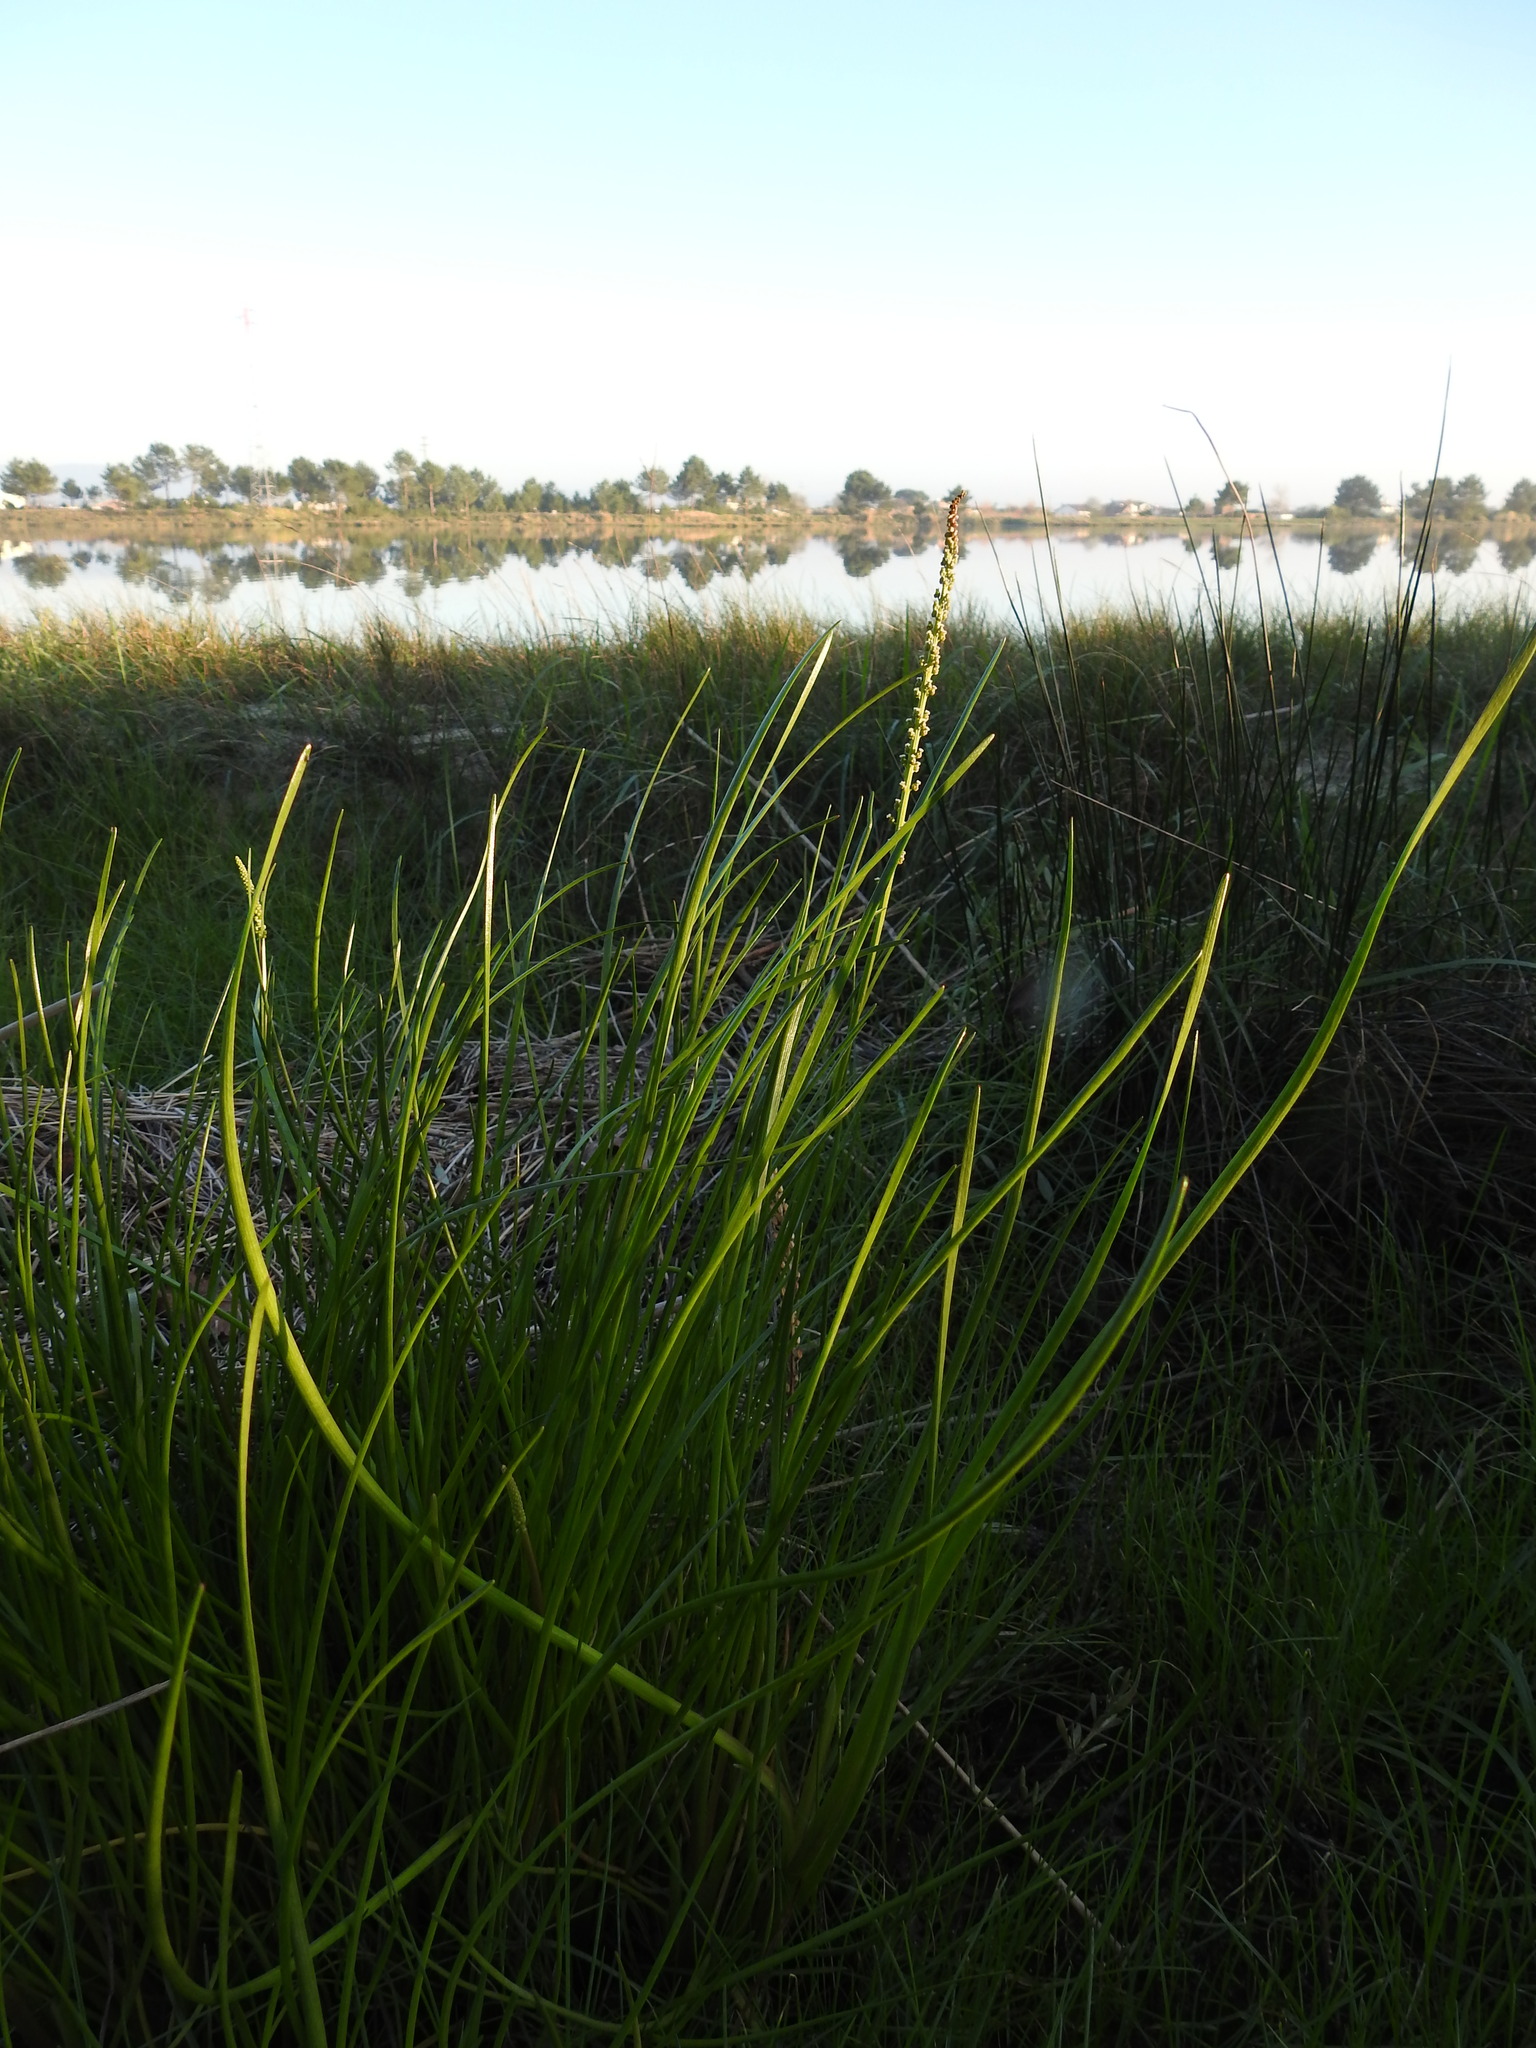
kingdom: Plantae
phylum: Tracheophyta
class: Liliopsida
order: Alismatales
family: Juncaginaceae
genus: Triglochin
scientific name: Triglochin maritima
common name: Sea arrowgrass
